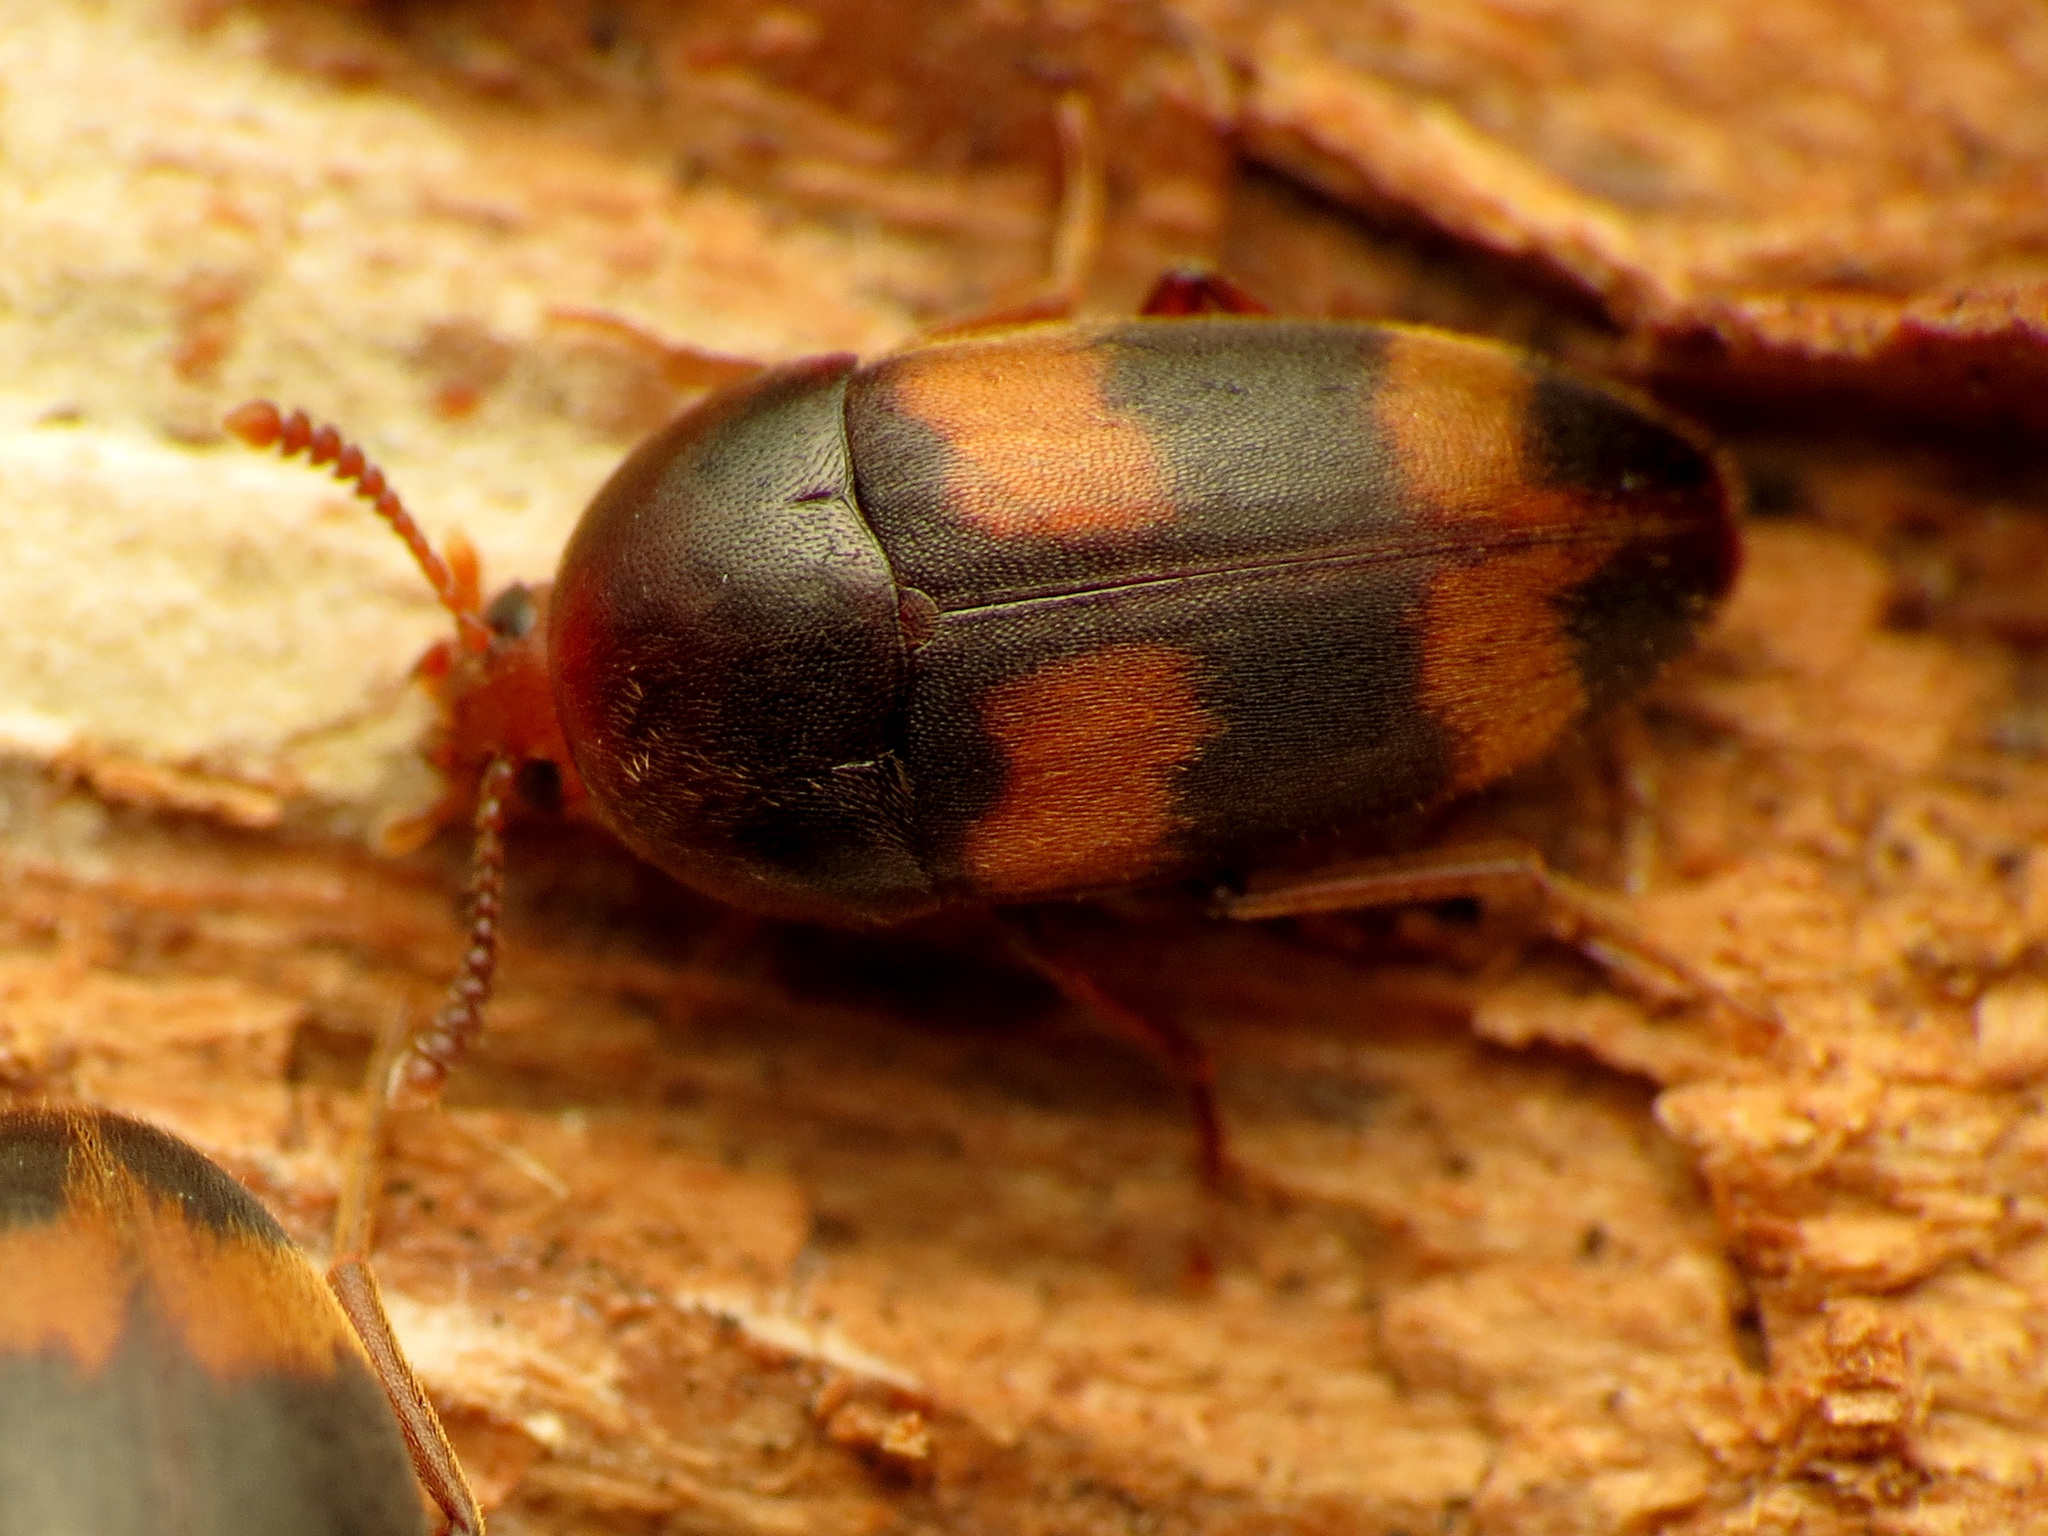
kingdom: Animalia
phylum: Arthropoda
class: Insecta
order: Coleoptera
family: Tetratomidae
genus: Holostrophus
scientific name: Holostrophus bifasciatus
